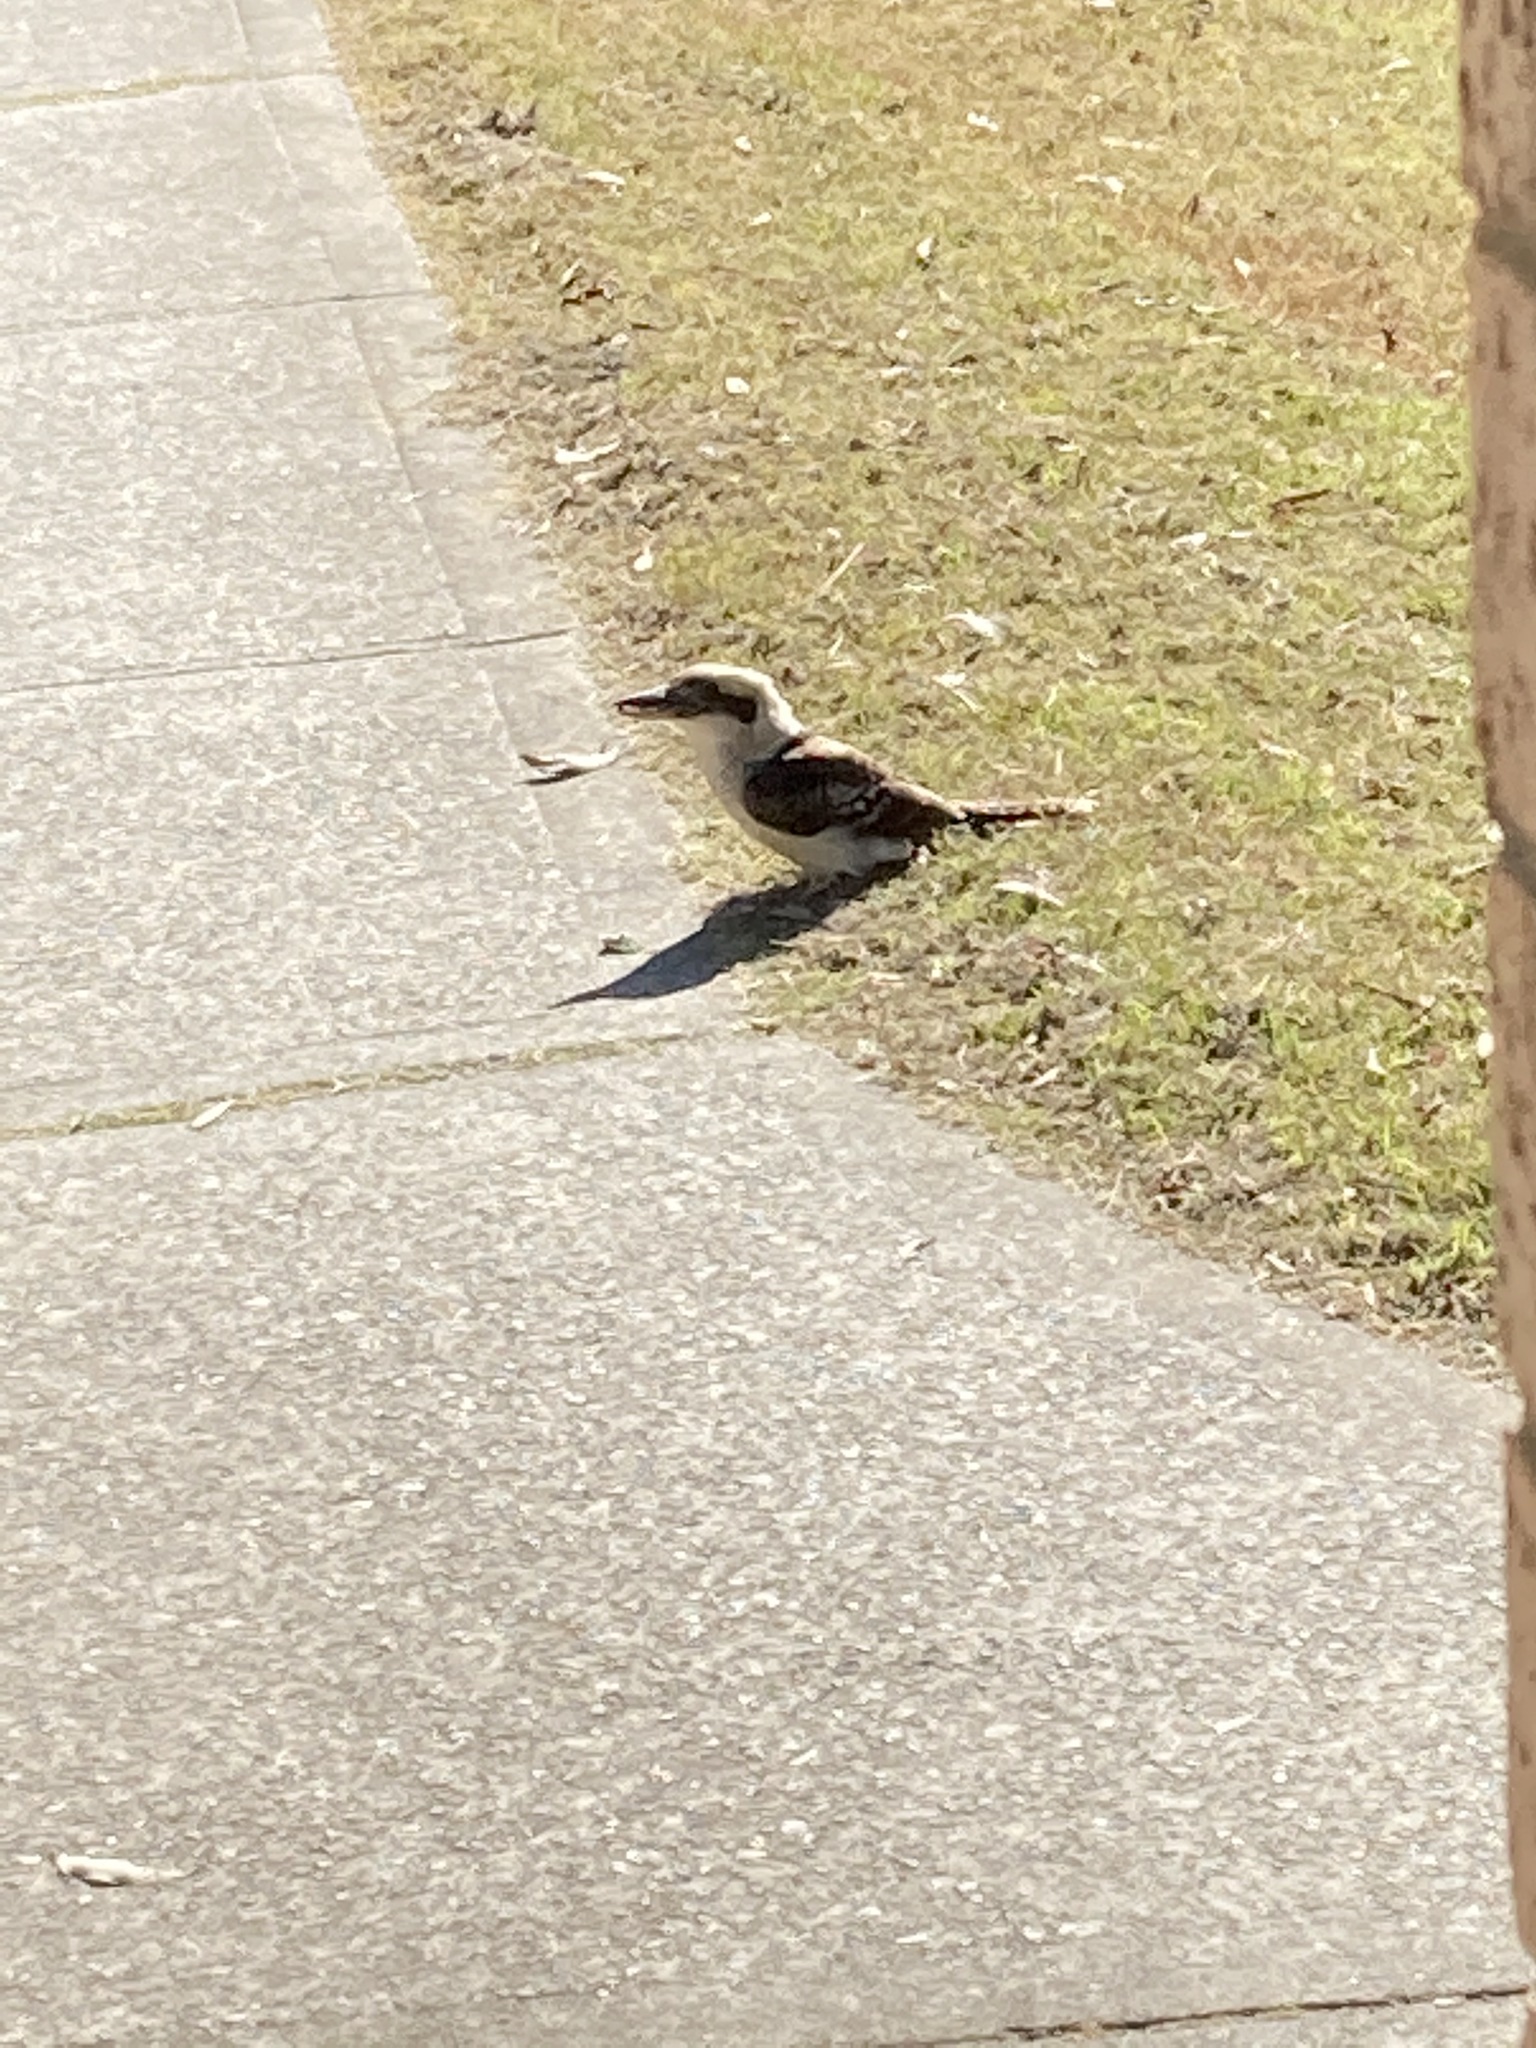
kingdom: Animalia
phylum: Chordata
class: Aves
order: Coraciiformes
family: Alcedinidae
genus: Dacelo
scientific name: Dacelo novaeguineae
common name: Laughing kookaburra
